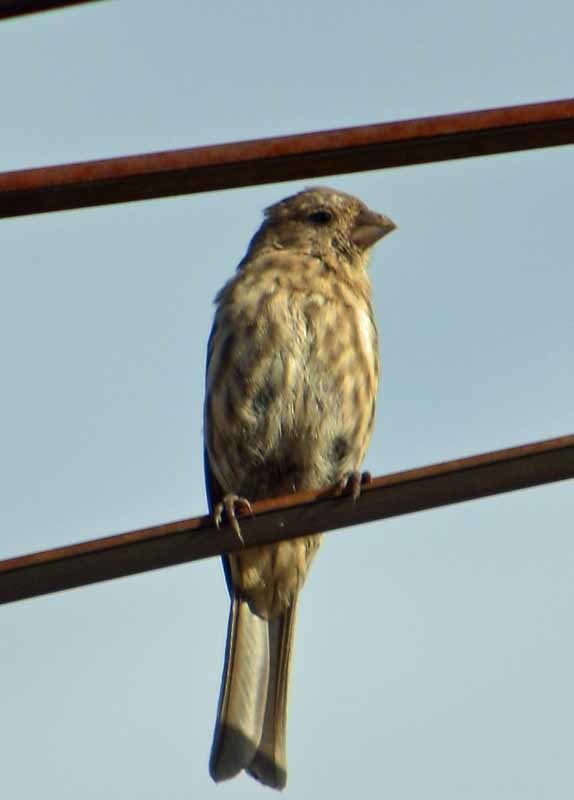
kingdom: Animalia
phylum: Chordata
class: Aves
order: Passeriformes
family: Fringillidae
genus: Haemorhous
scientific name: Haemorhous mexicanus
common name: House finch
